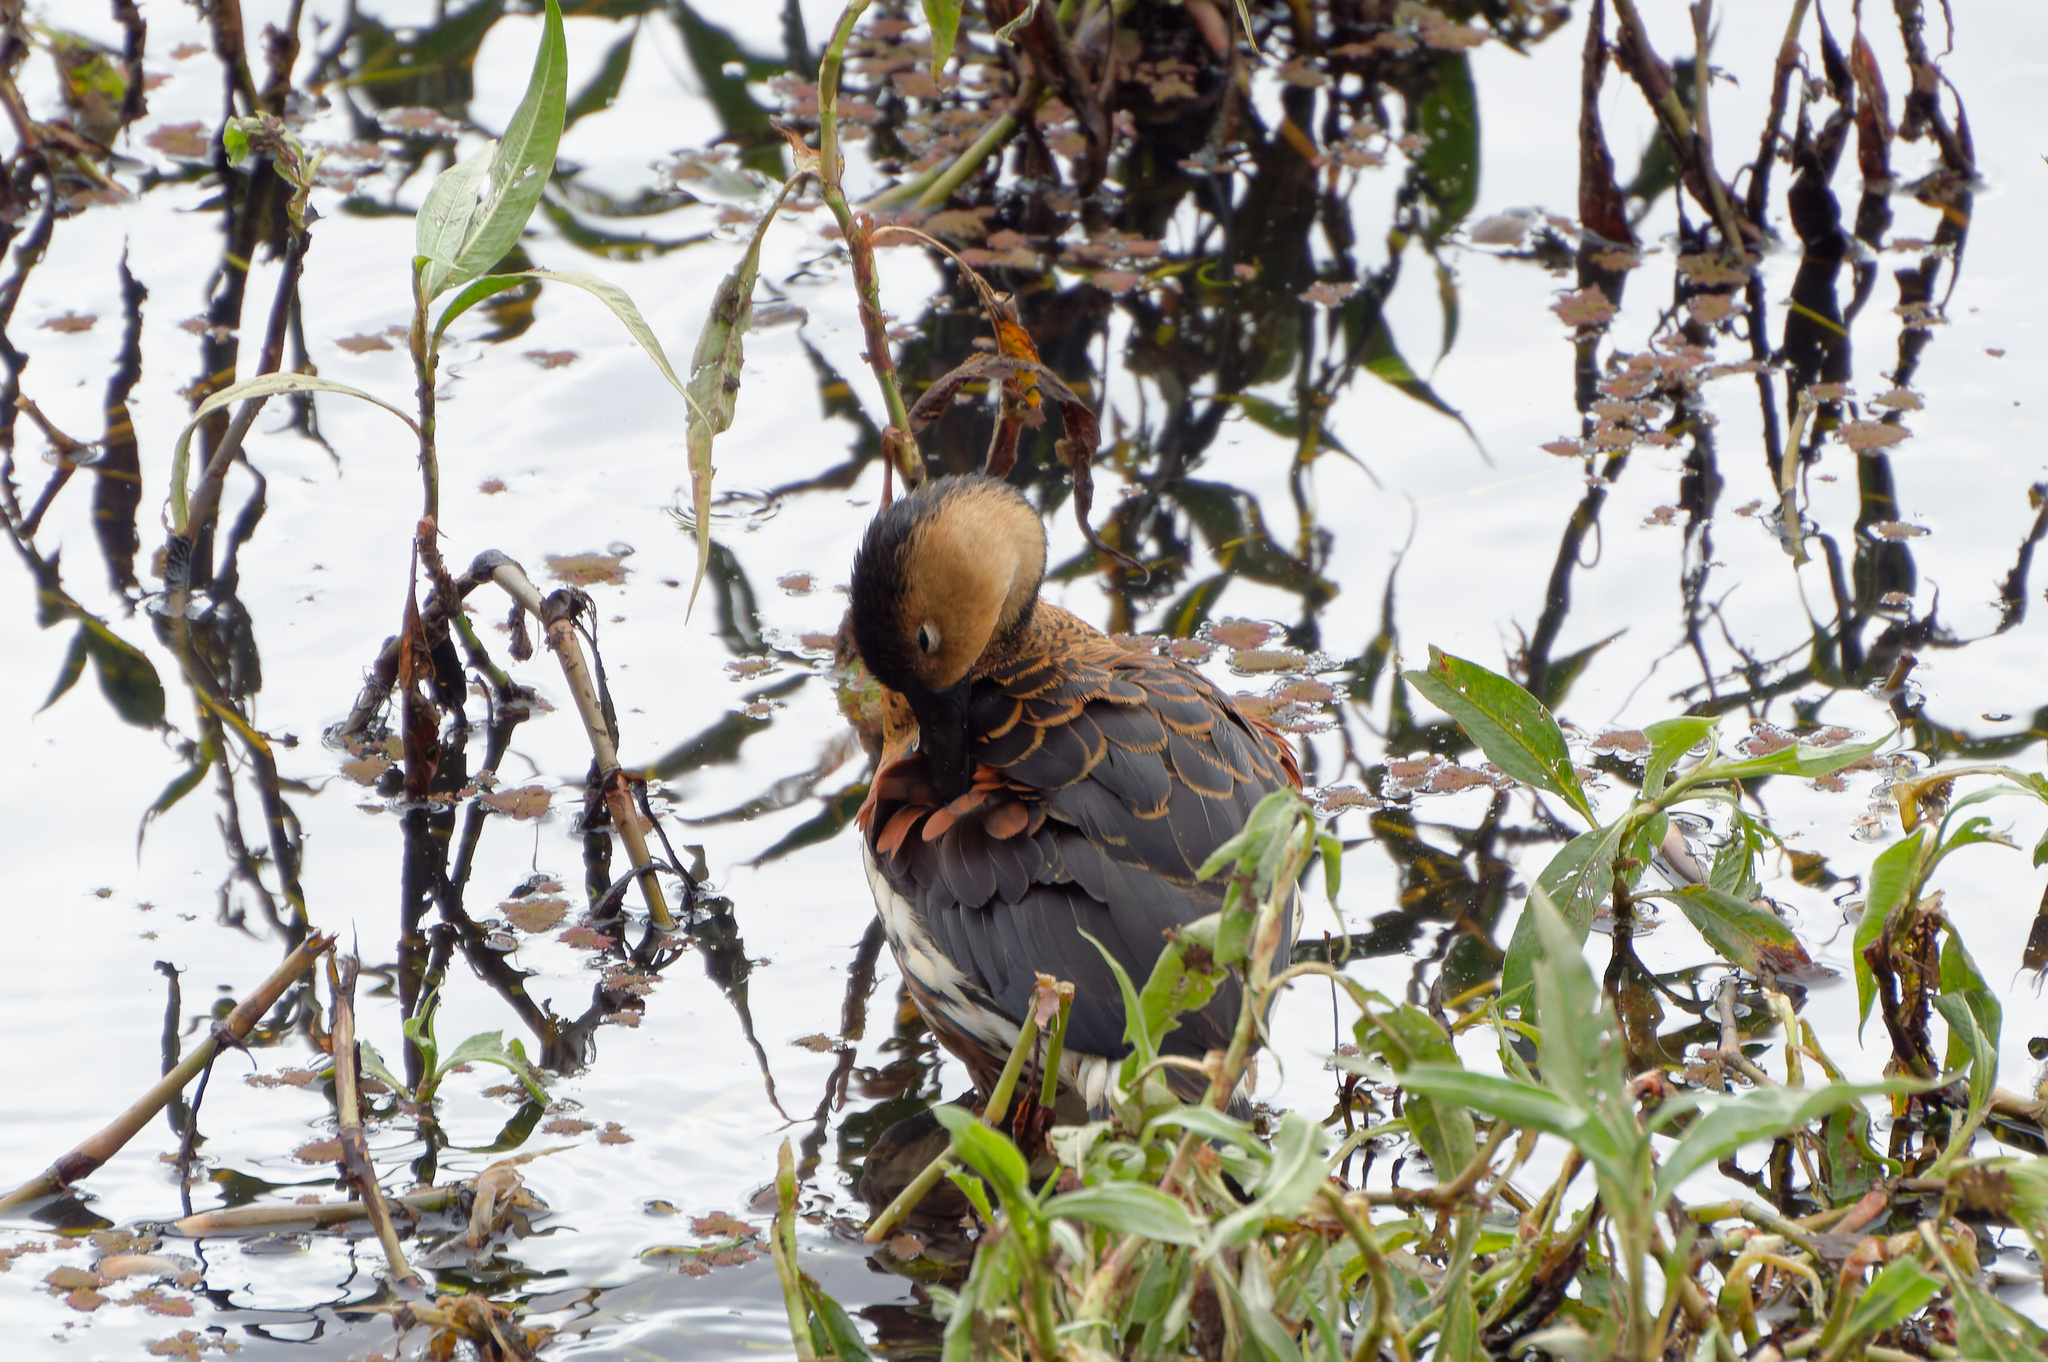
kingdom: Animalia
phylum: Chordata
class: Aves
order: Anseriformes
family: Anatidae
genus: Dendrocygna
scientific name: Dendrocygna arcuata
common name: Wandering whistling-duck
